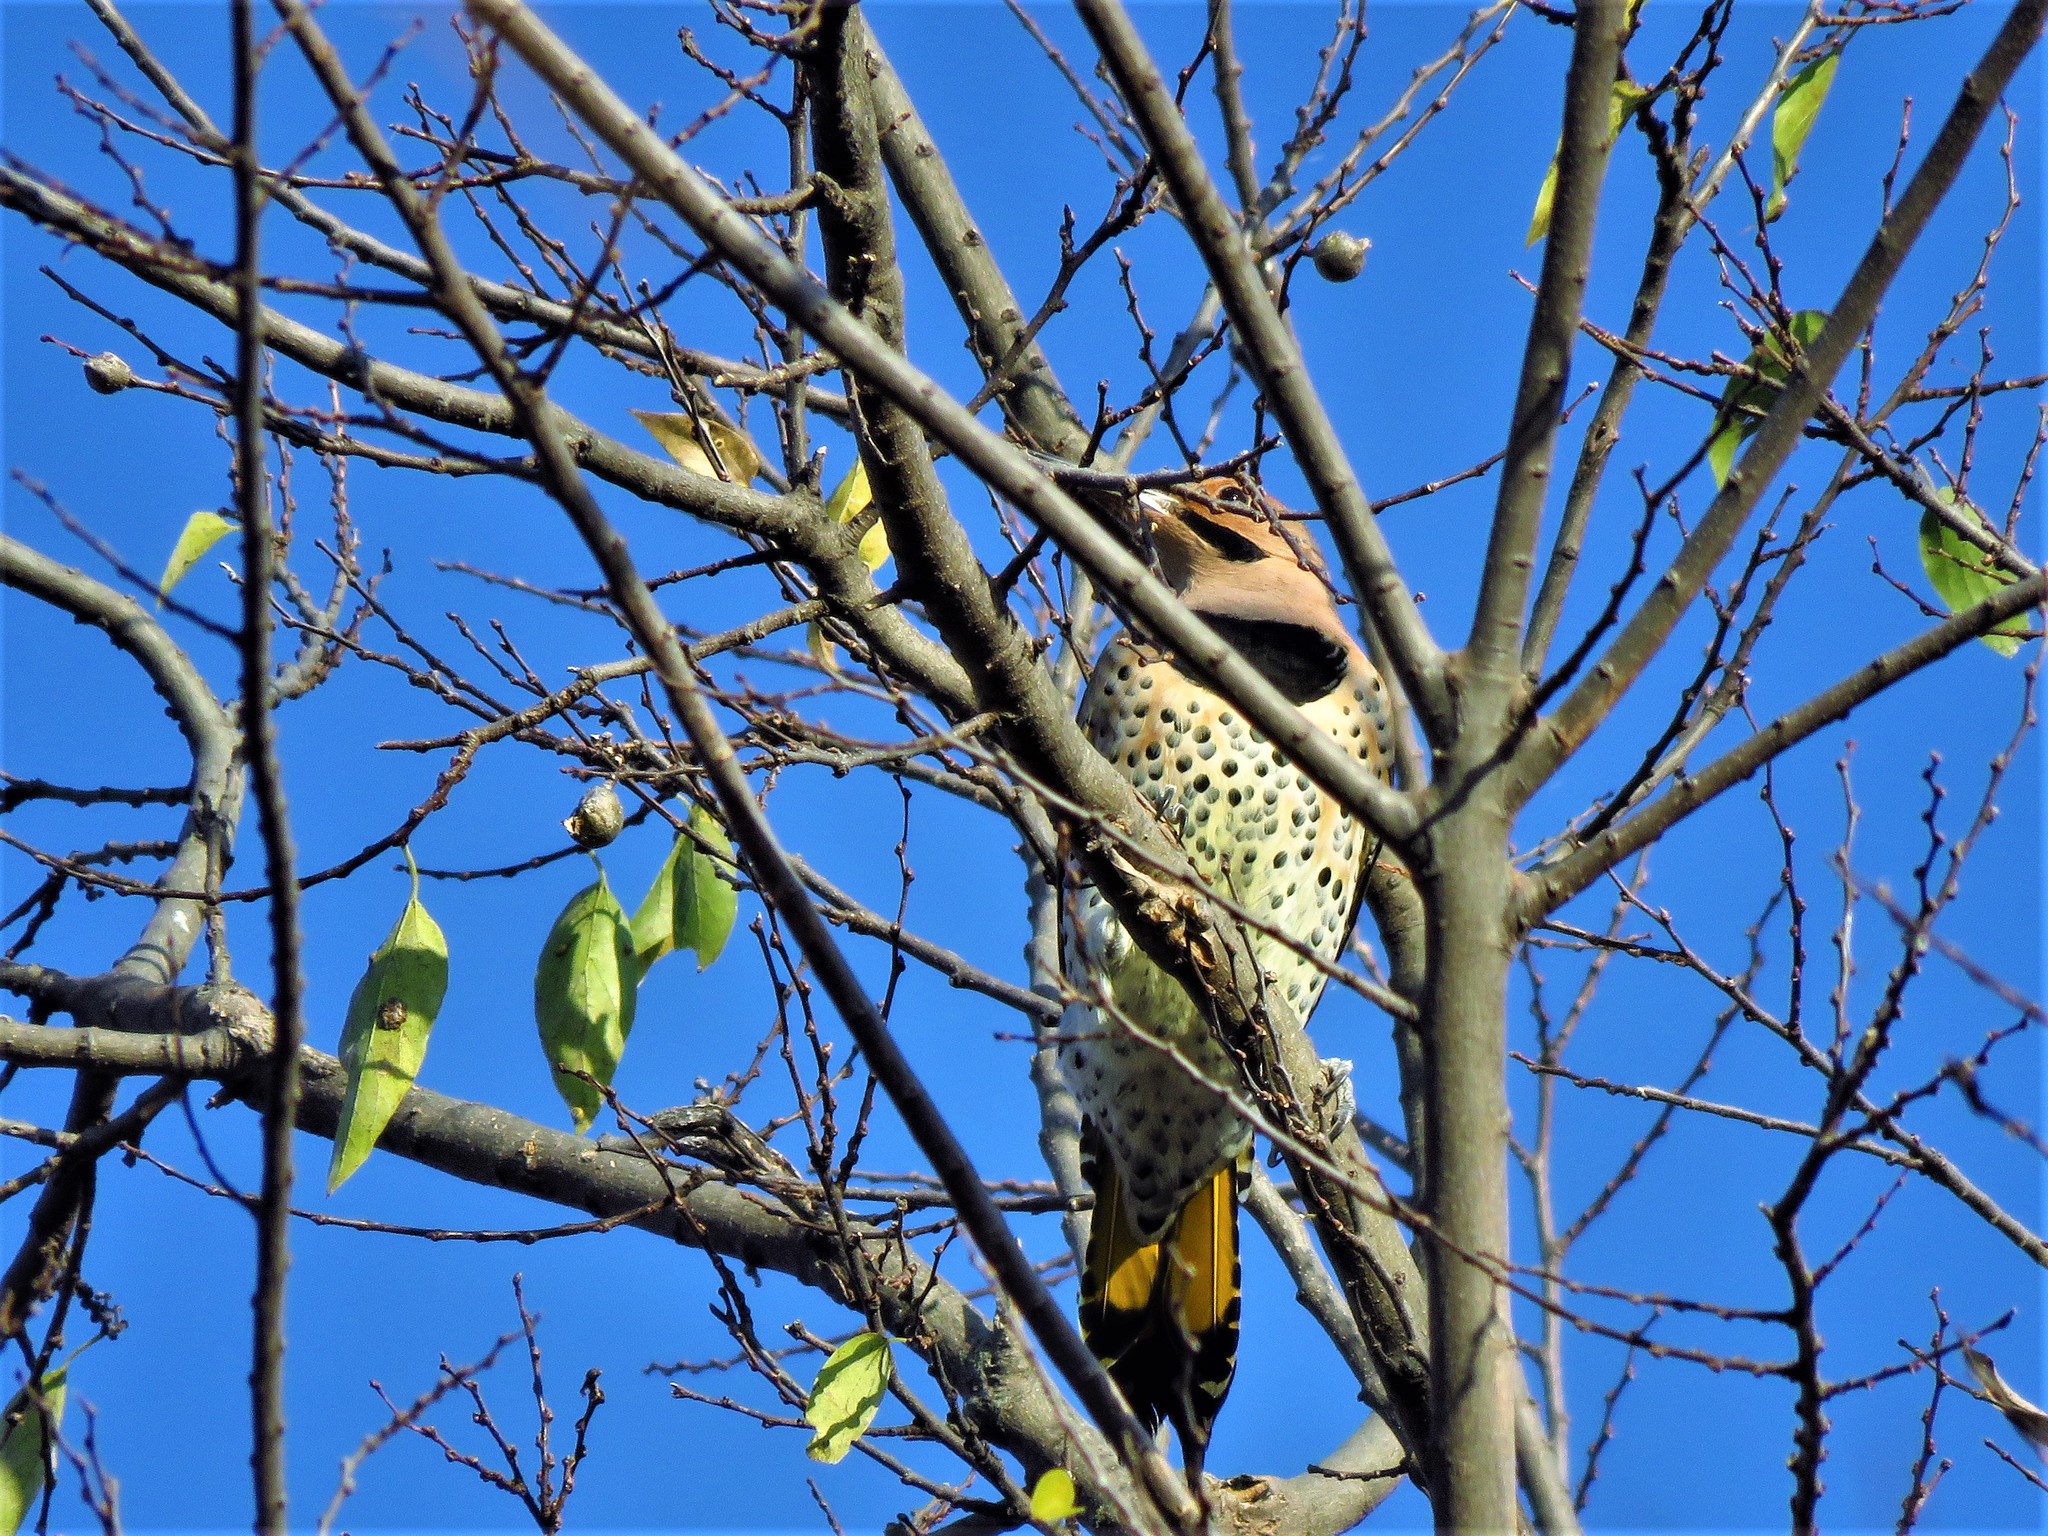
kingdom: Animalia
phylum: Chordata
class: Aves
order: Piciformes
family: Picidae
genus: Colaptes
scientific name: Colaptes auratus
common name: Northern flicker
